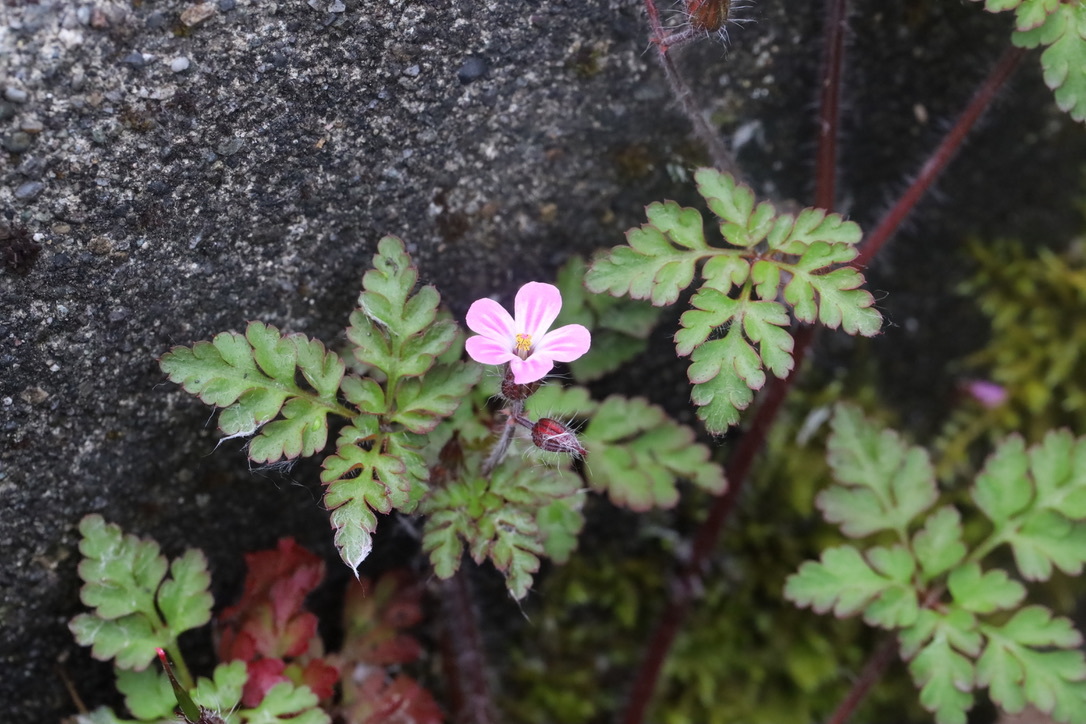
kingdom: Plantae
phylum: Tracheophyta
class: Magnoliopsida
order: Geraniales
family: Geraniaceae
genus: Geranium
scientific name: Geranium robertianum
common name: Herb-robert
